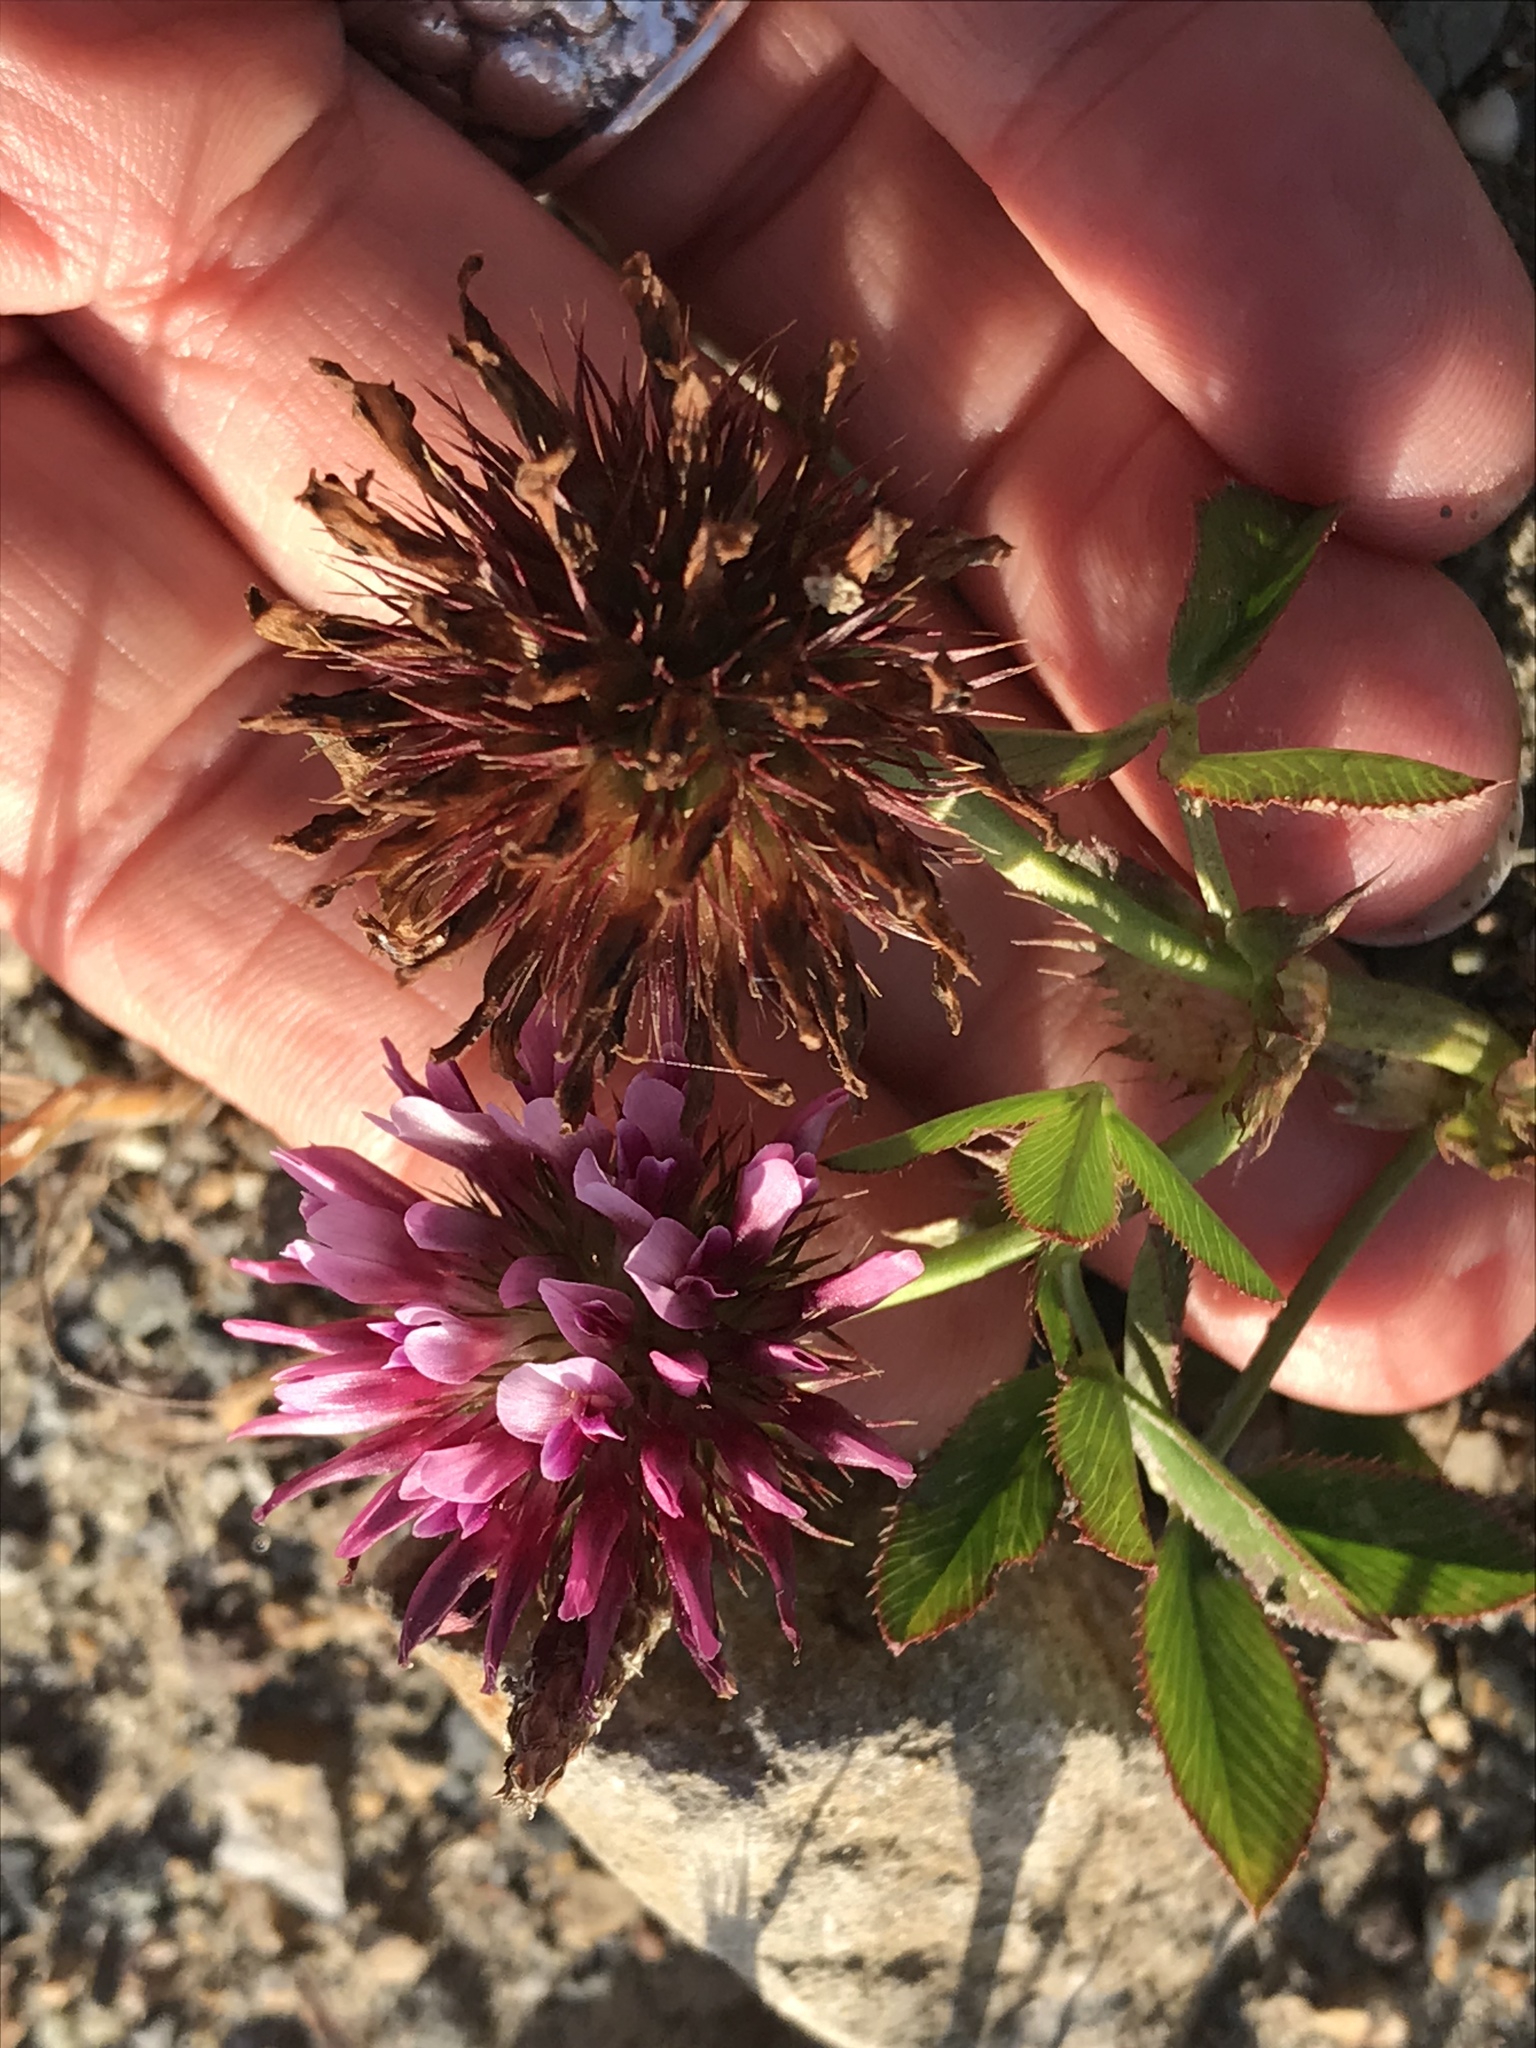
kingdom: Plantae
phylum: Tracheophyta
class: Magnoliopsida
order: Fabales
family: Fabaceae
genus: Trifolium
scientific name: Trifolium wormskioldii
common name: Springbank clover
